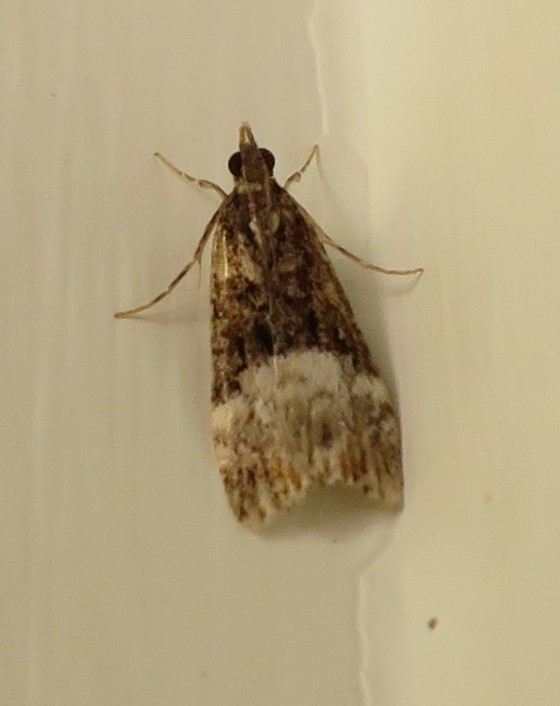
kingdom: Animalia
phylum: Arthropoda
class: Insecta
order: Lepidoptera
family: Crambidae
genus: Scoparia
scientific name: Scoparia minusculalis
